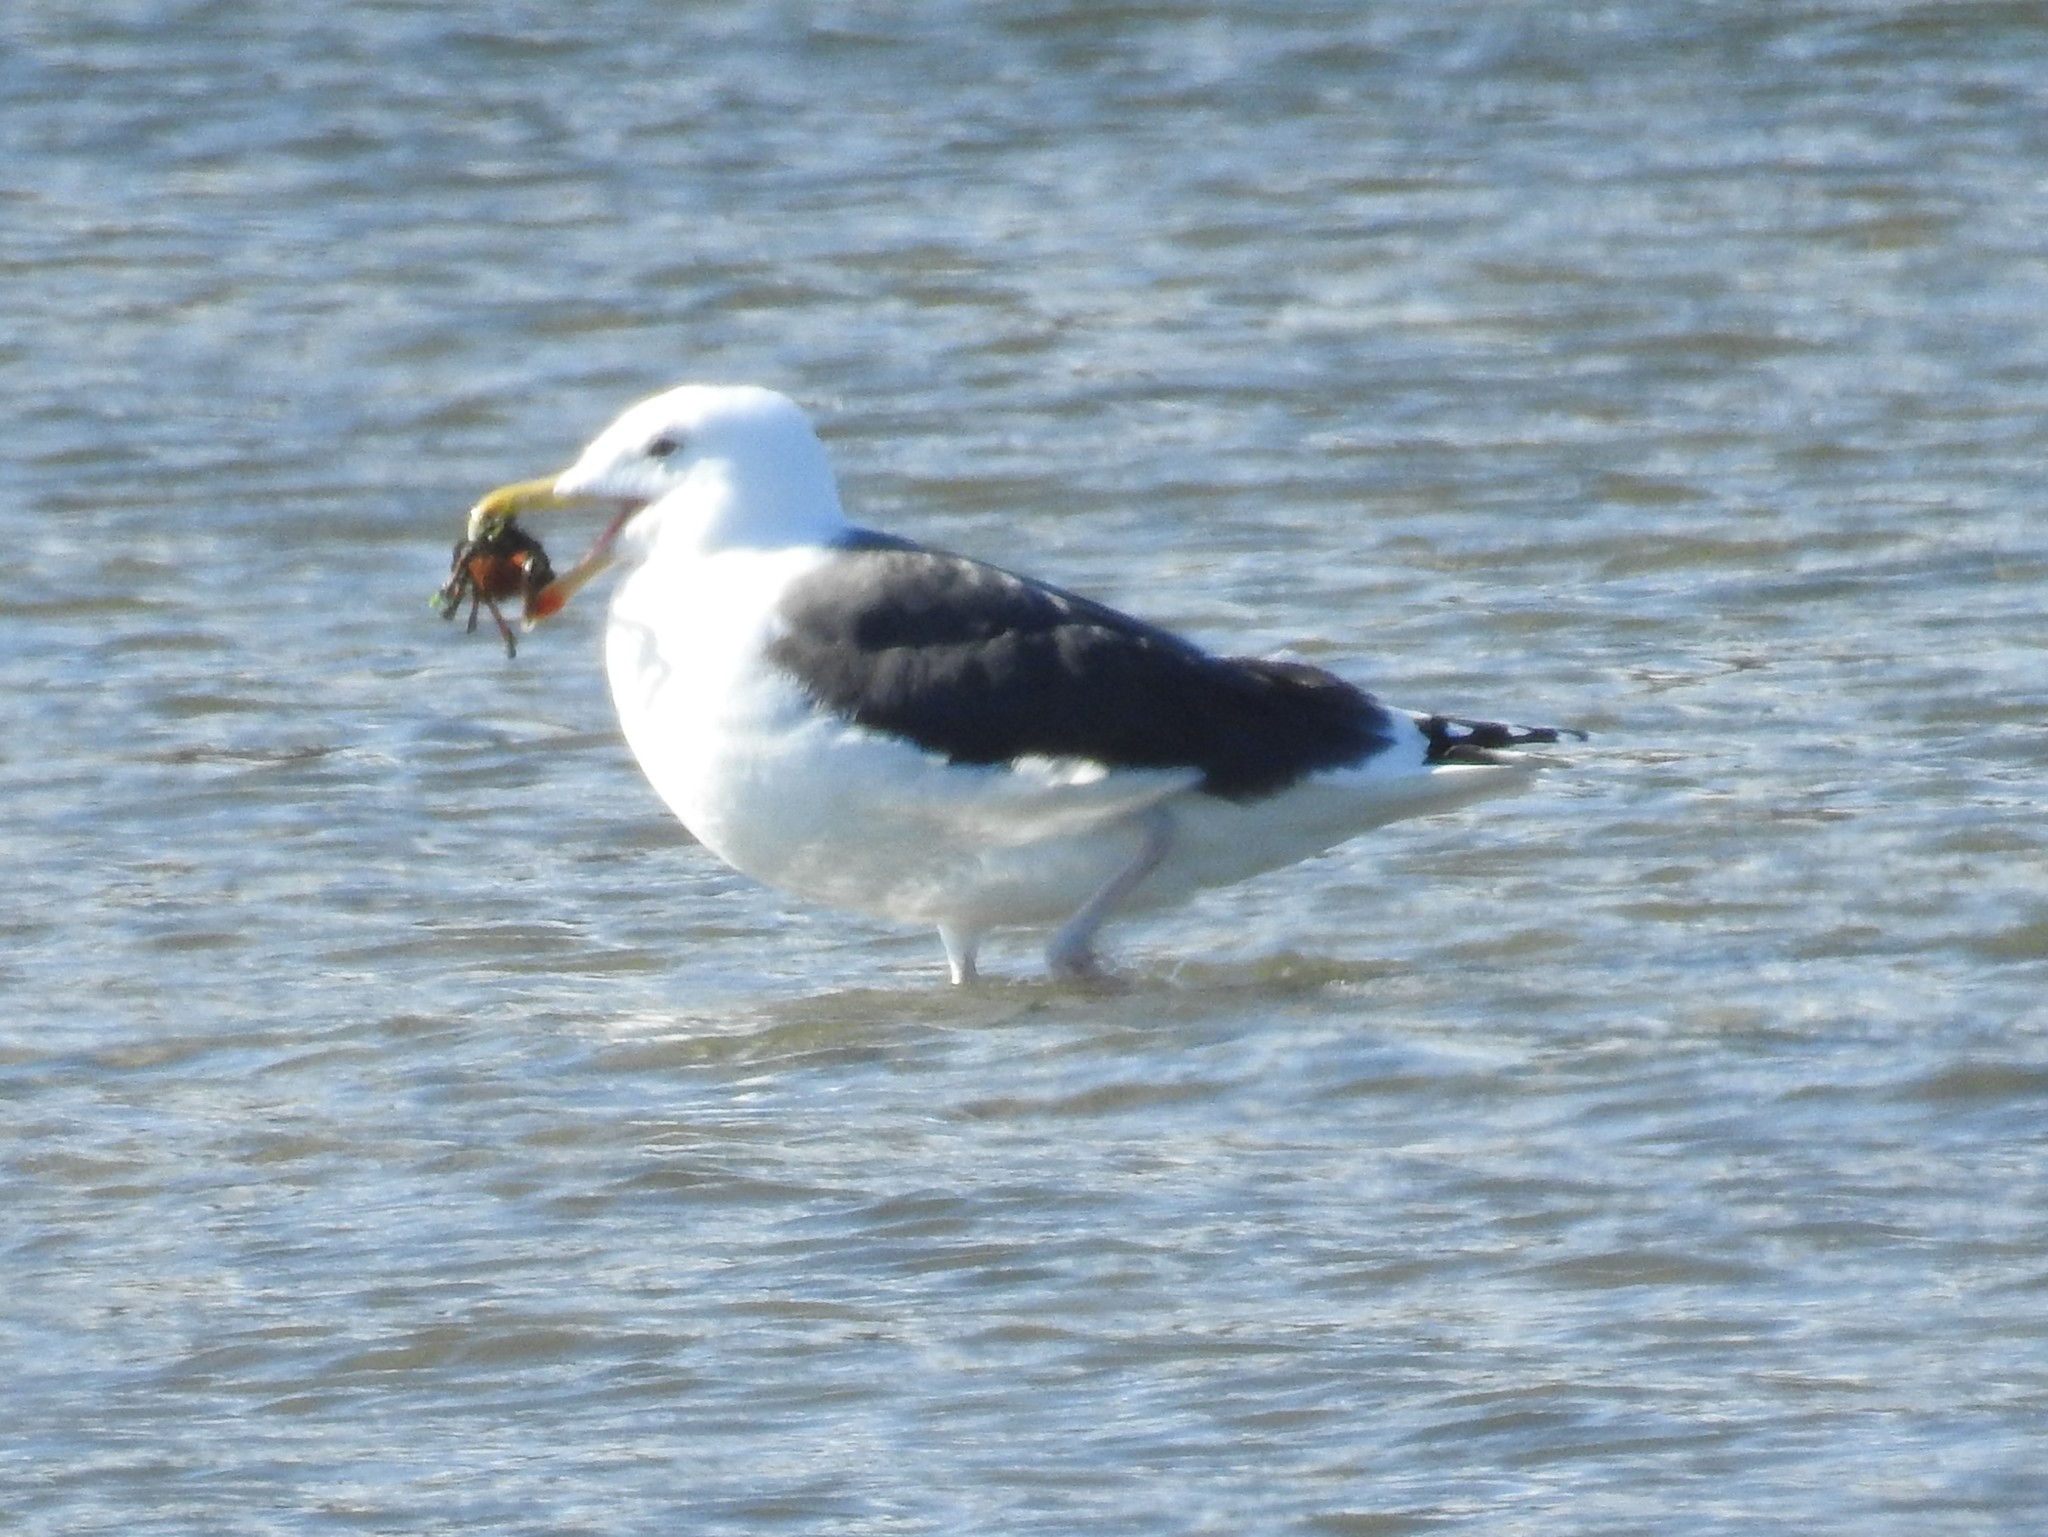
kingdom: Animalia
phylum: Chordata
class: Aves
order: Charadriiformes
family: Laridae
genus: Larus
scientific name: Larus marinus
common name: Great black-backed gull
